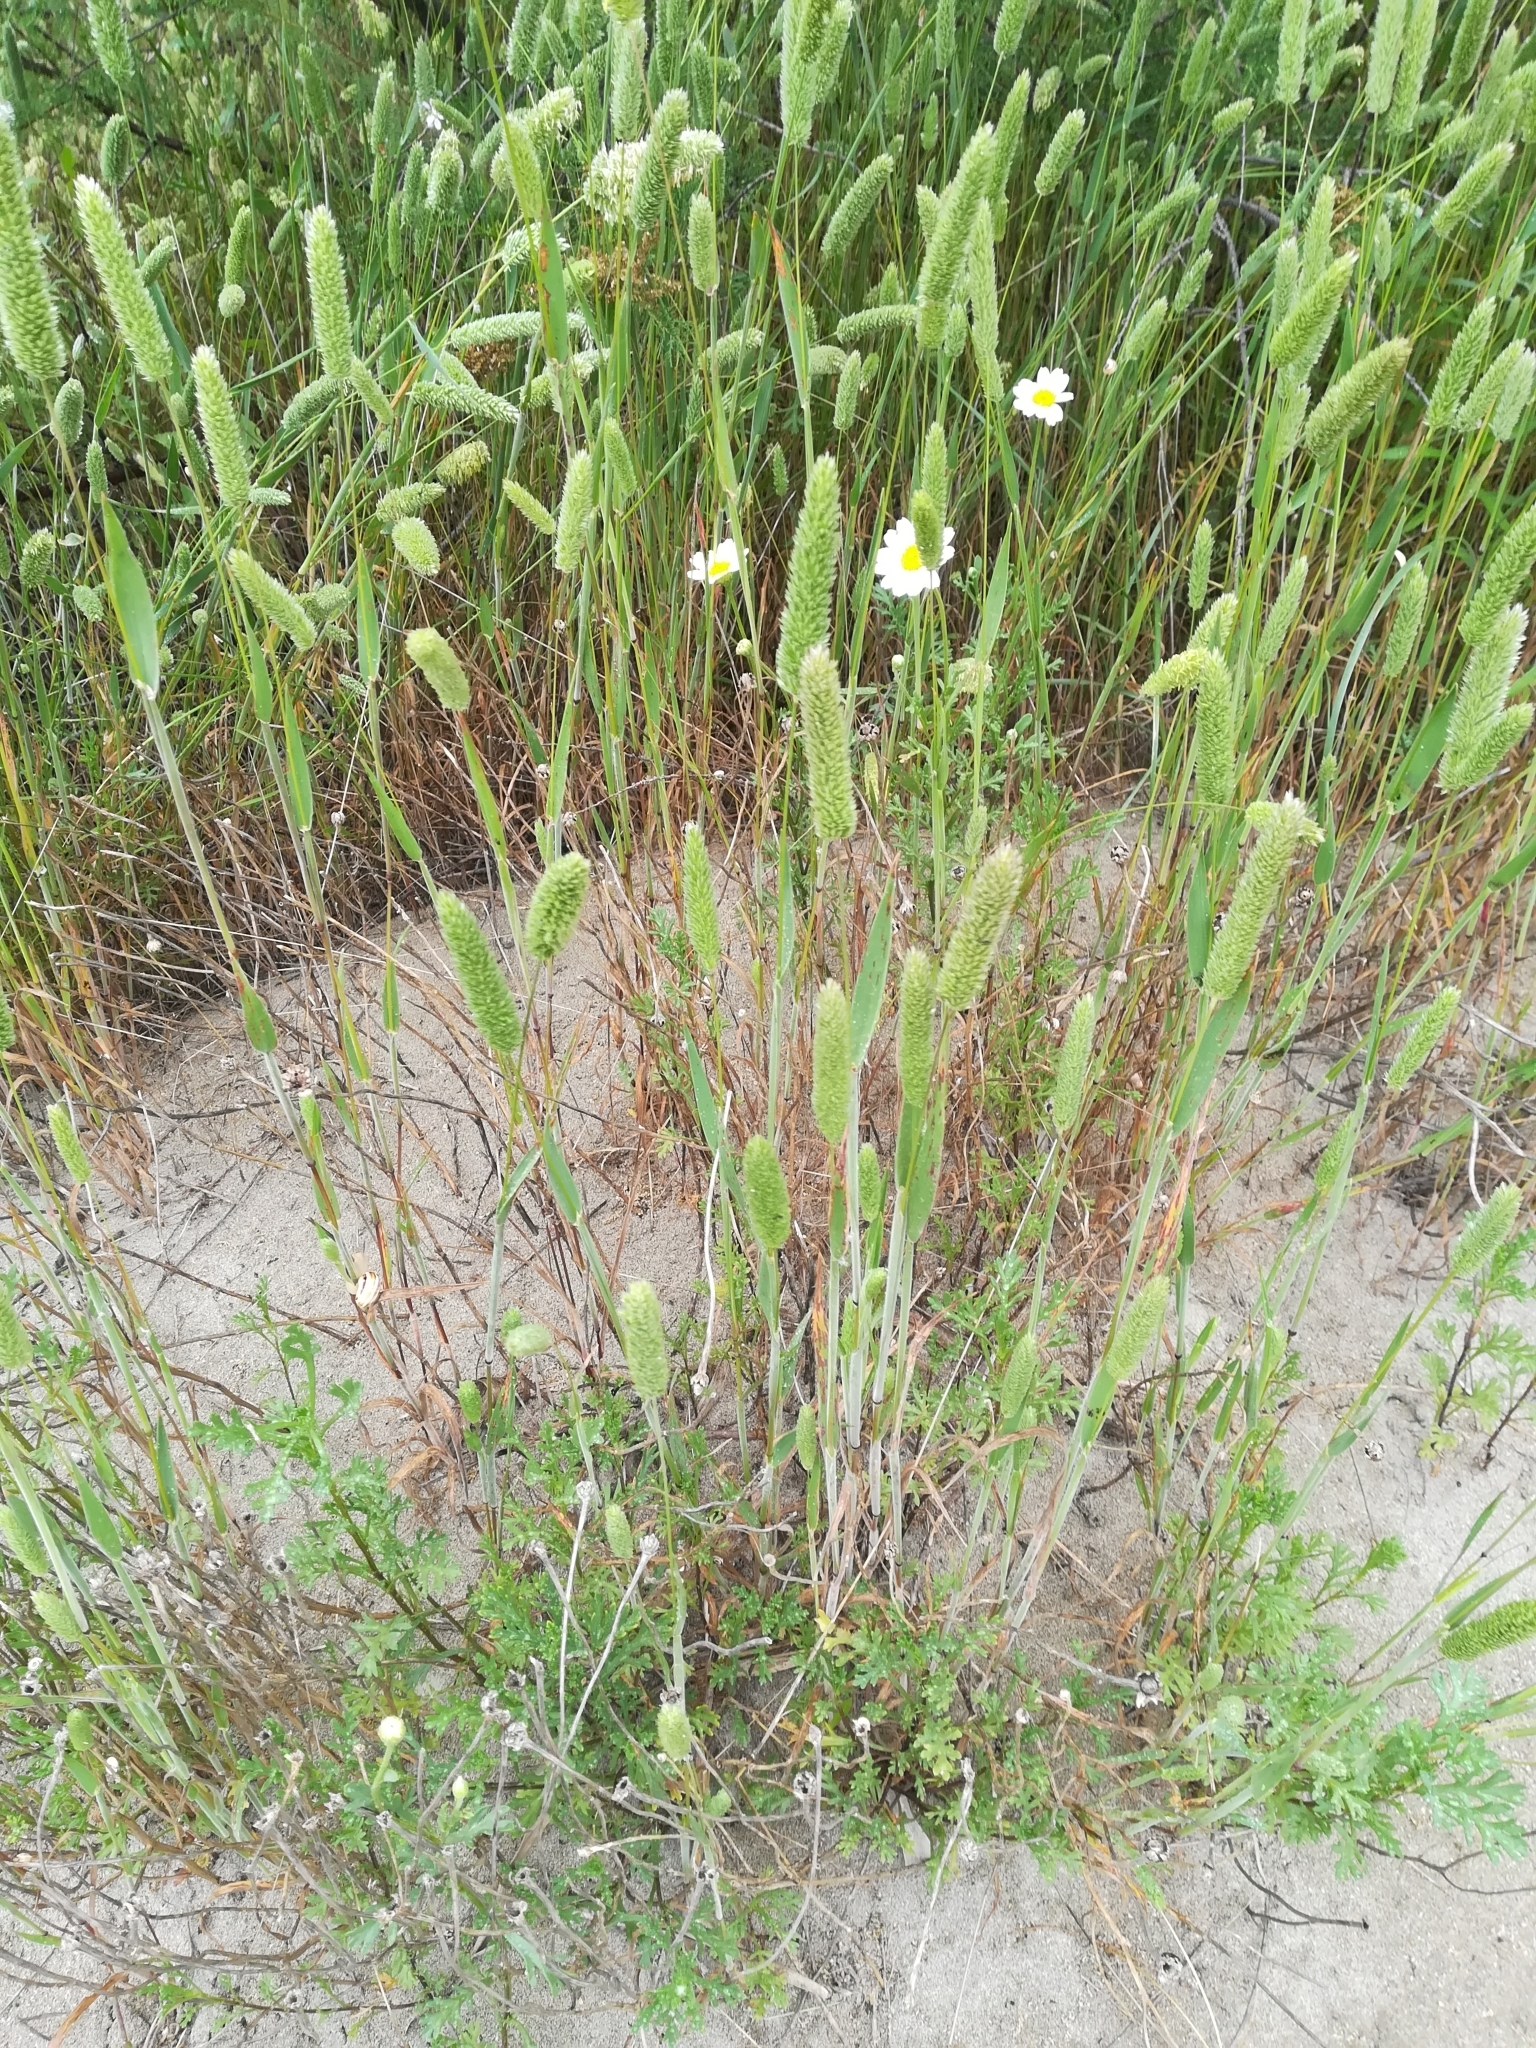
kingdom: Plantae
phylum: Tracheophyta
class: Liliopsida
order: Poales
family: Poaceae
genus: Phleum
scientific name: Phleum arenarium
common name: Sand cat's-tail
